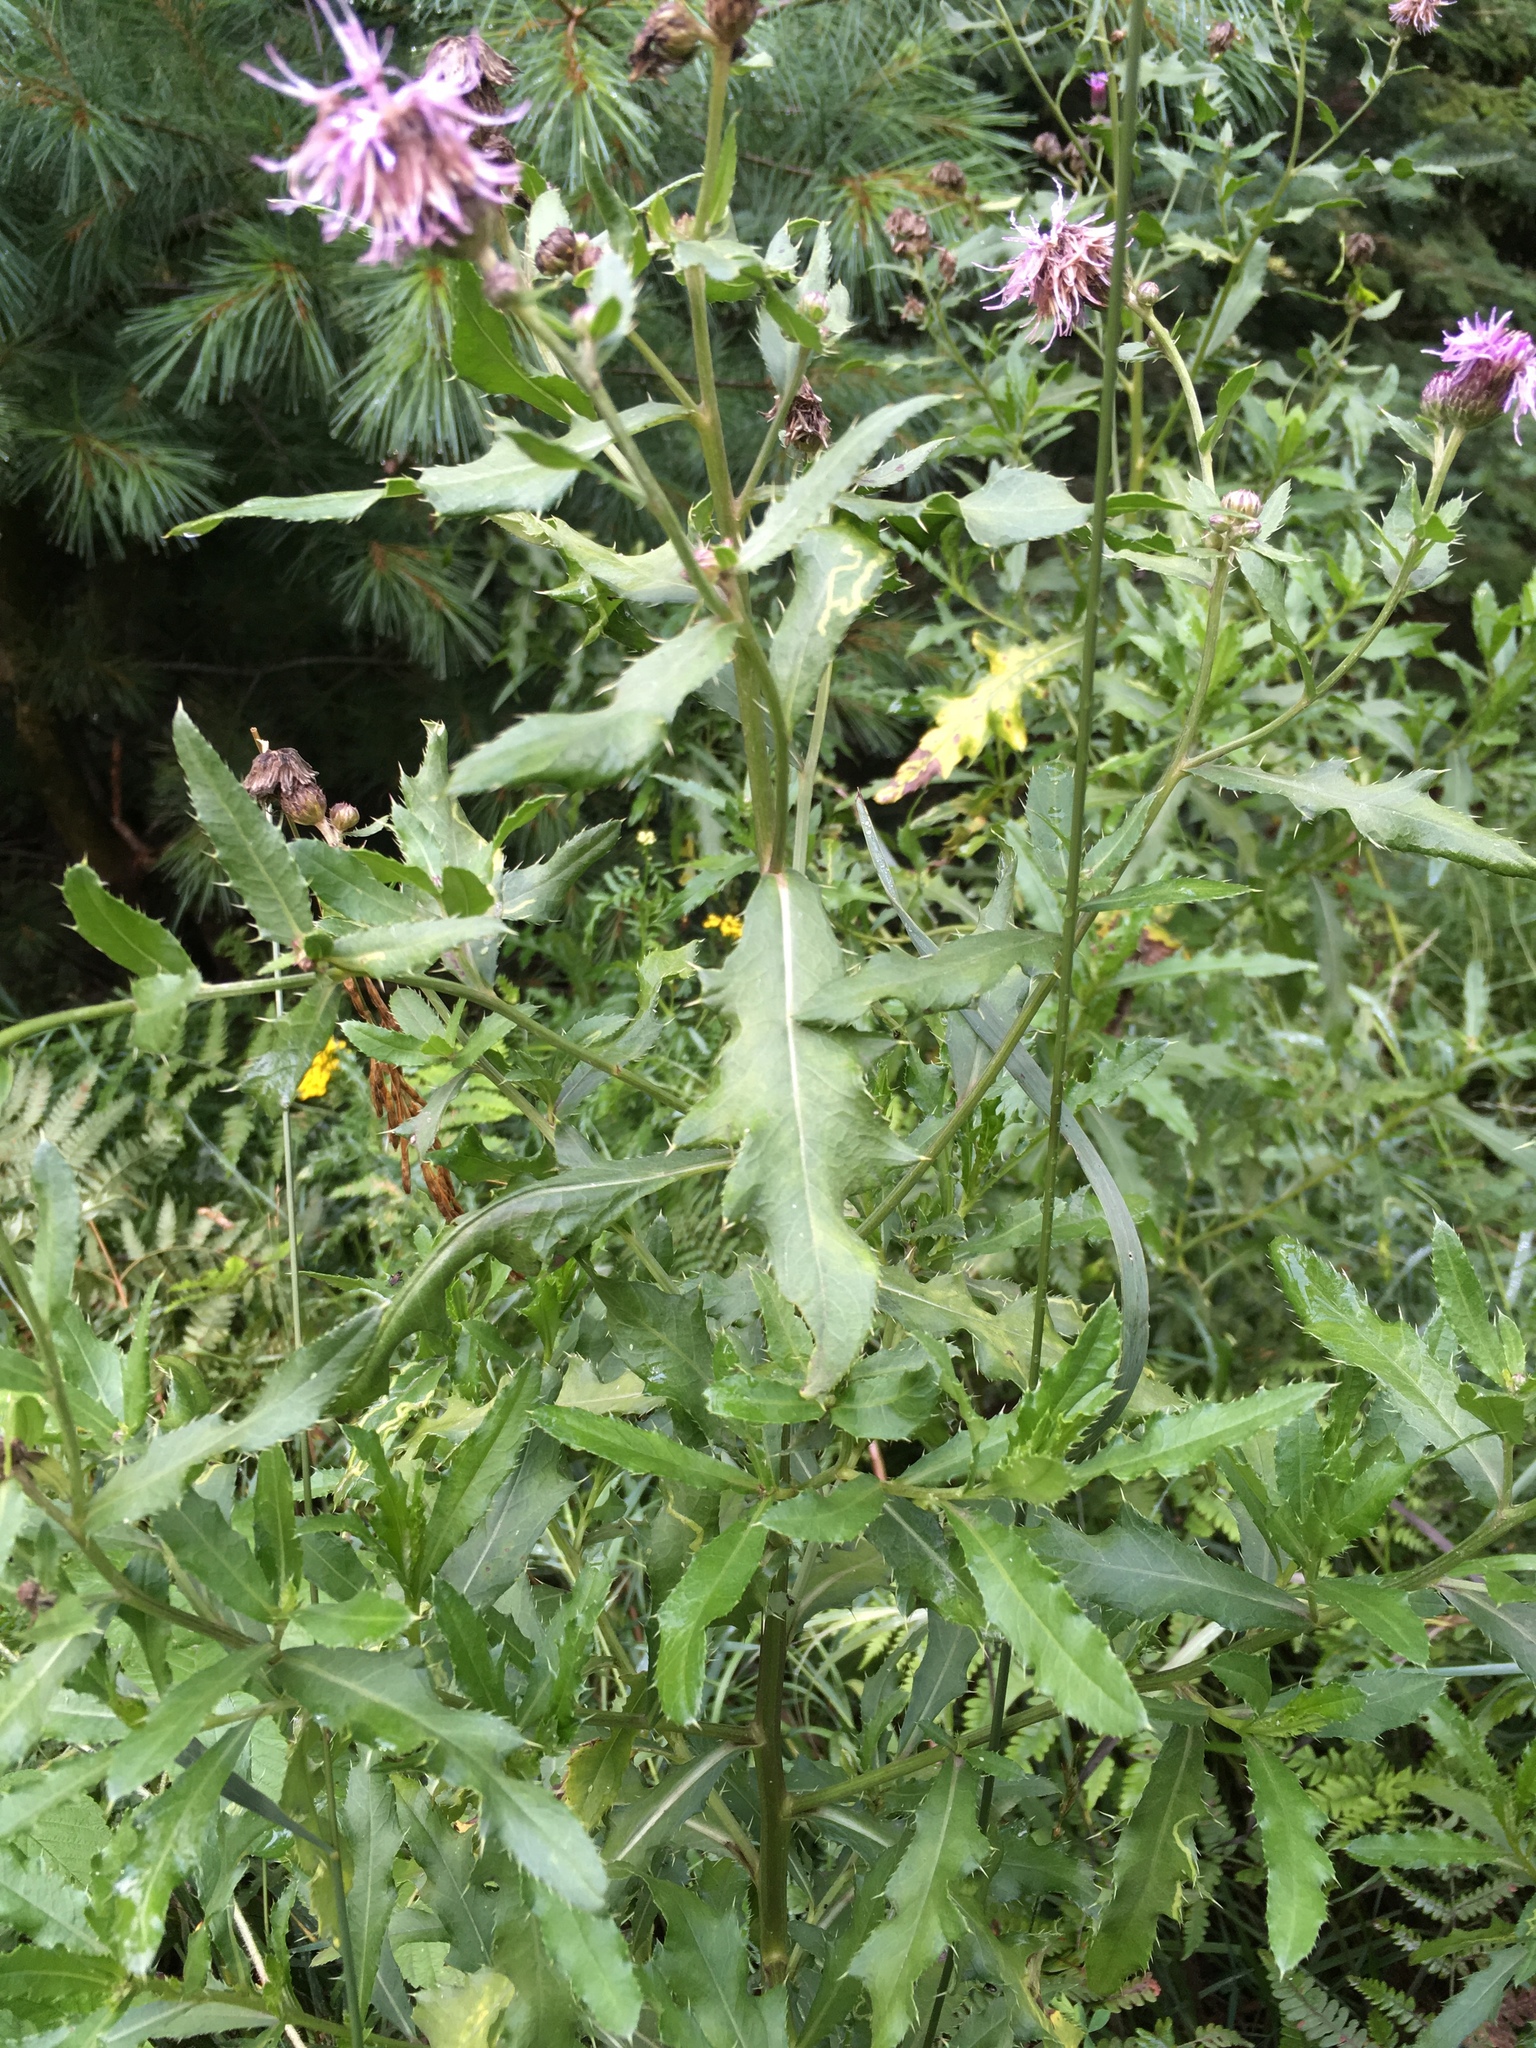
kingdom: Plantae
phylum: Tracheophyta
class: Magnoliopsida
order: Asterales
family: Asteraceae
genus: Cirsium
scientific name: Cirsium arvense
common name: Creeping thistle
